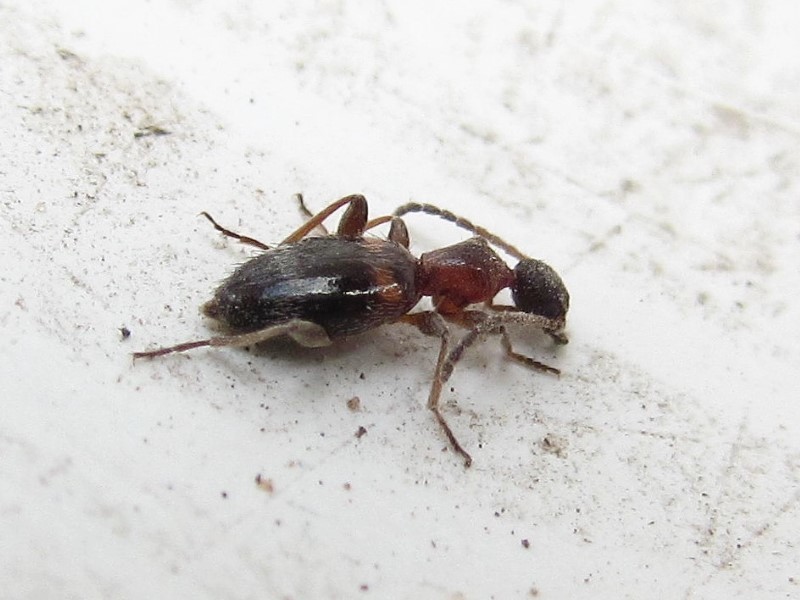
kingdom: Animalia
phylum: Arthropoda
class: Insecta
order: Coleoptera
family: Anthicidae
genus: Anthelephila
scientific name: Anthelephila pedestris
